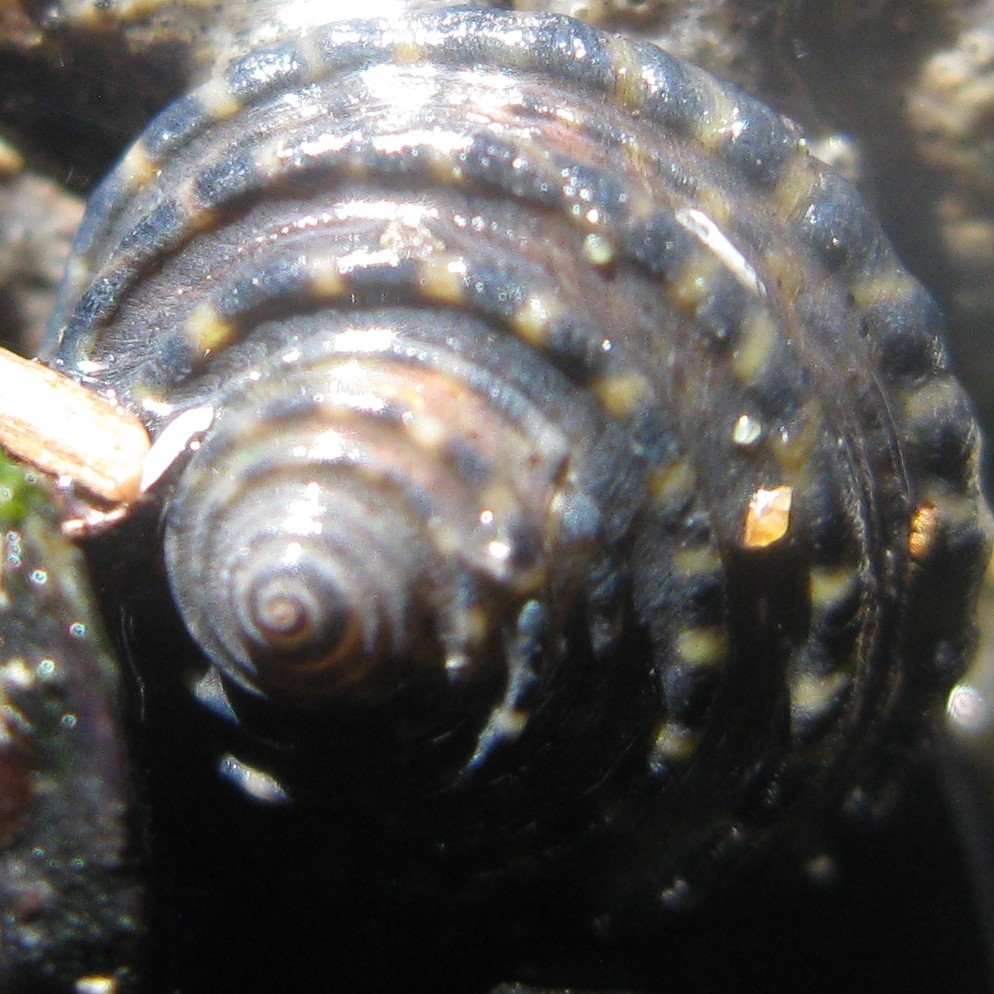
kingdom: Animalia
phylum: Mollusca
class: Gastropoda
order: Trochida
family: Trochidae
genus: Diloma
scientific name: Diloma bicanaliculatum
